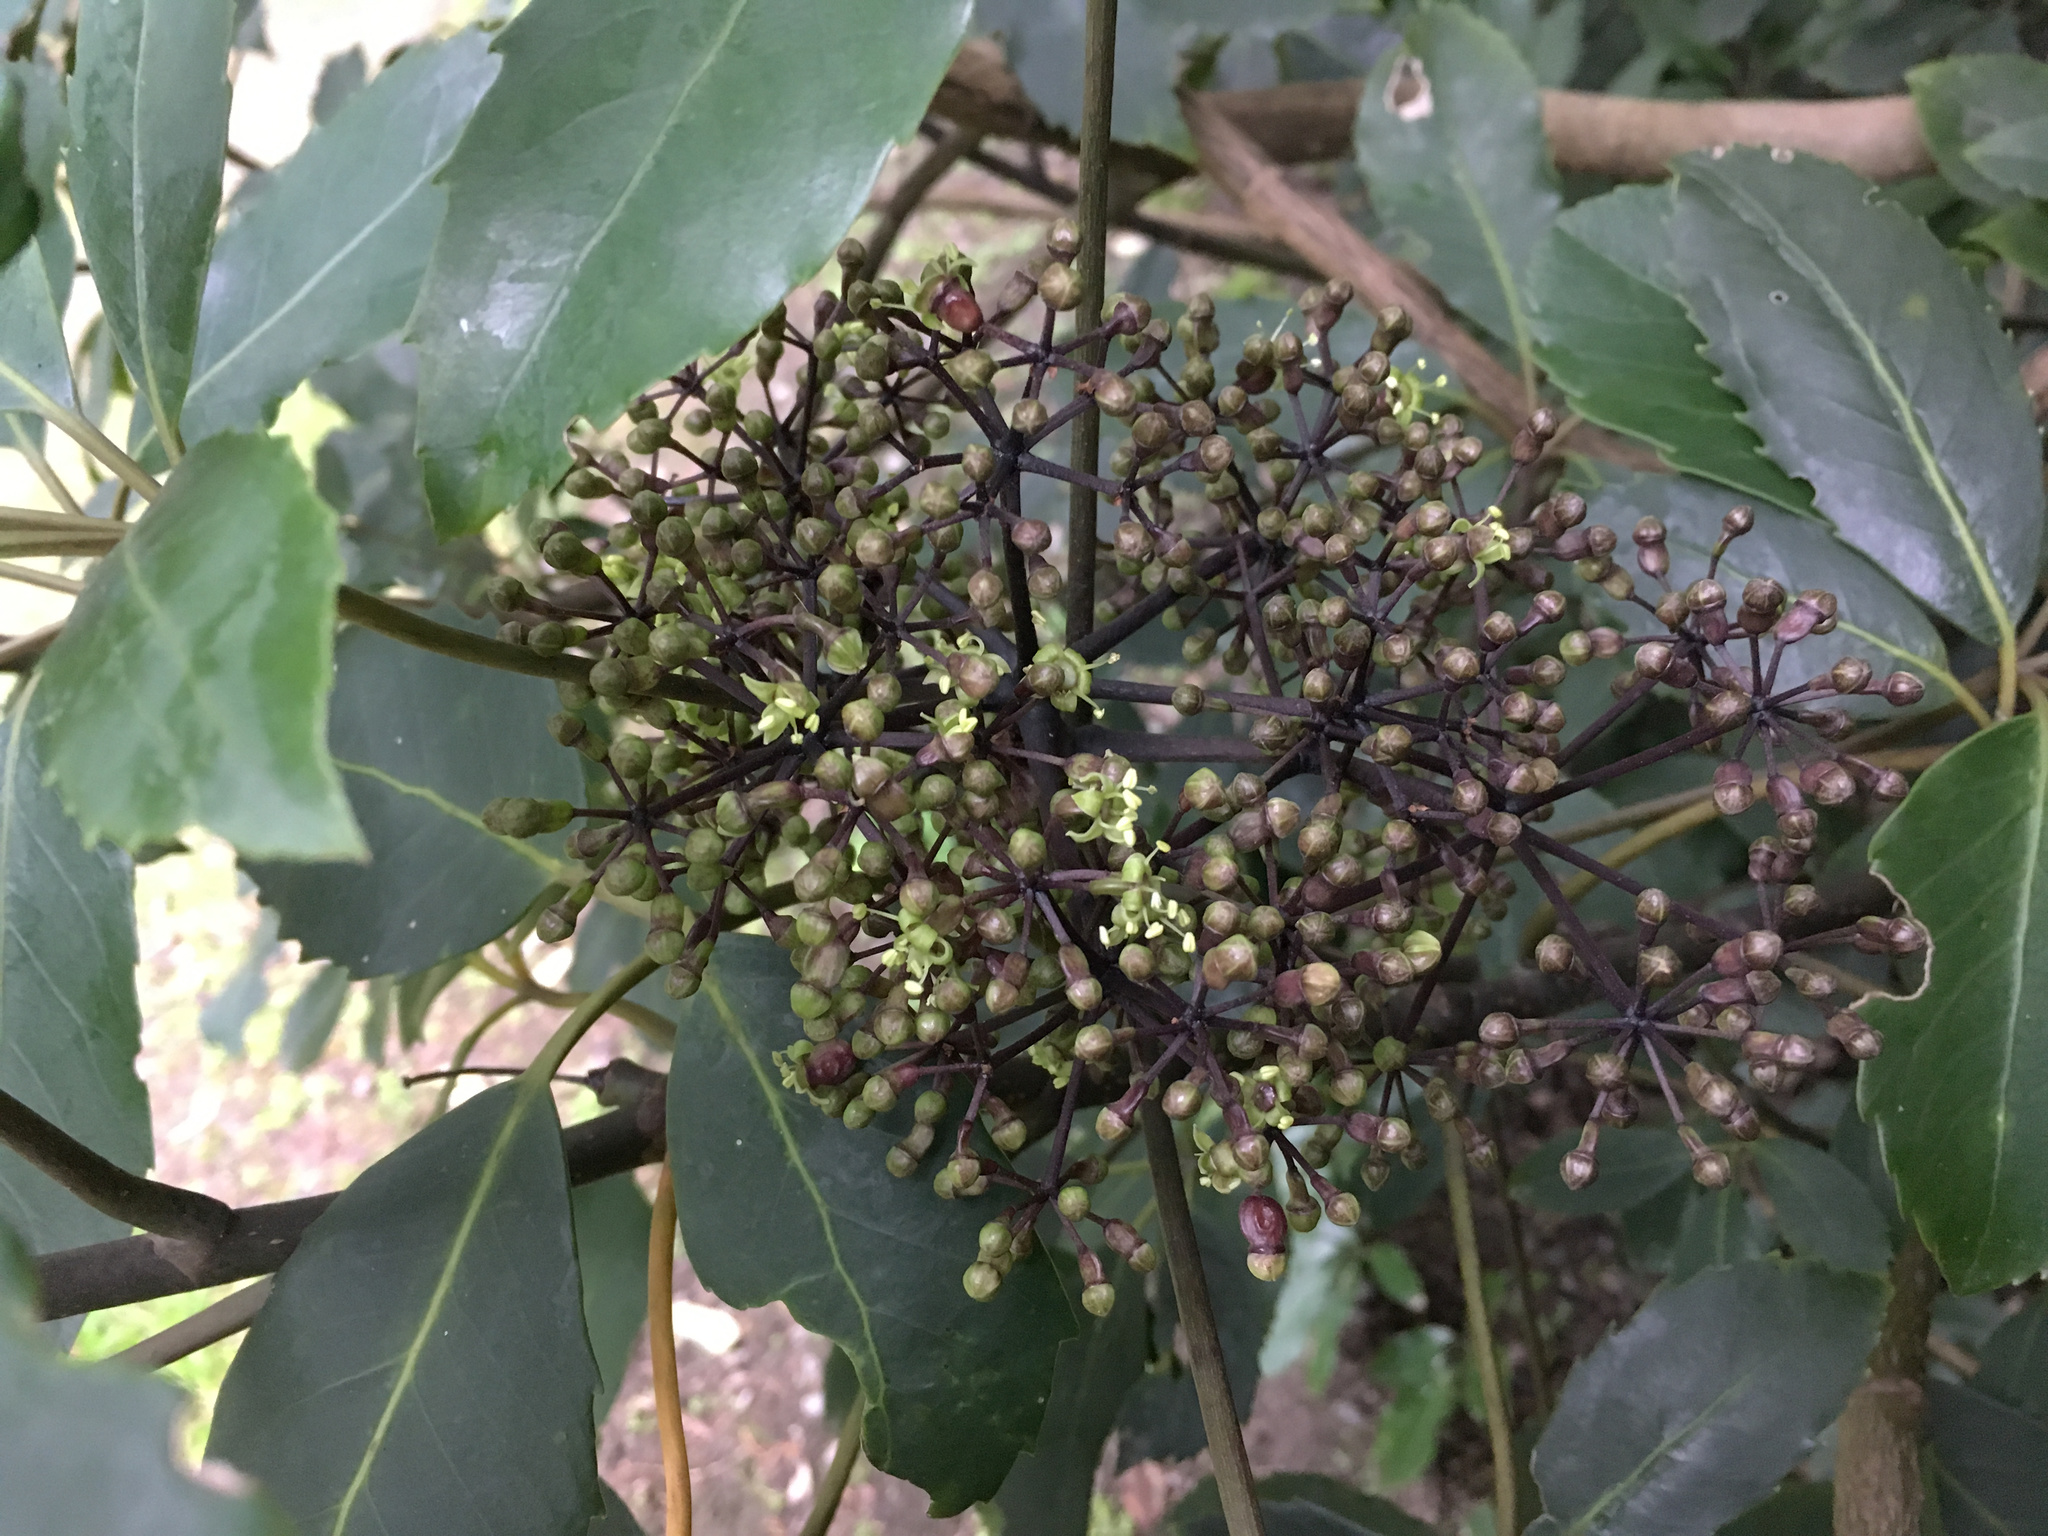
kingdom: Plantae
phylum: Tracheophyta
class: Magnoliopsida
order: Apiales
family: Araliaceae
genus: Neopanax
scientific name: Neopanax arboreus
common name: Five-fingers
